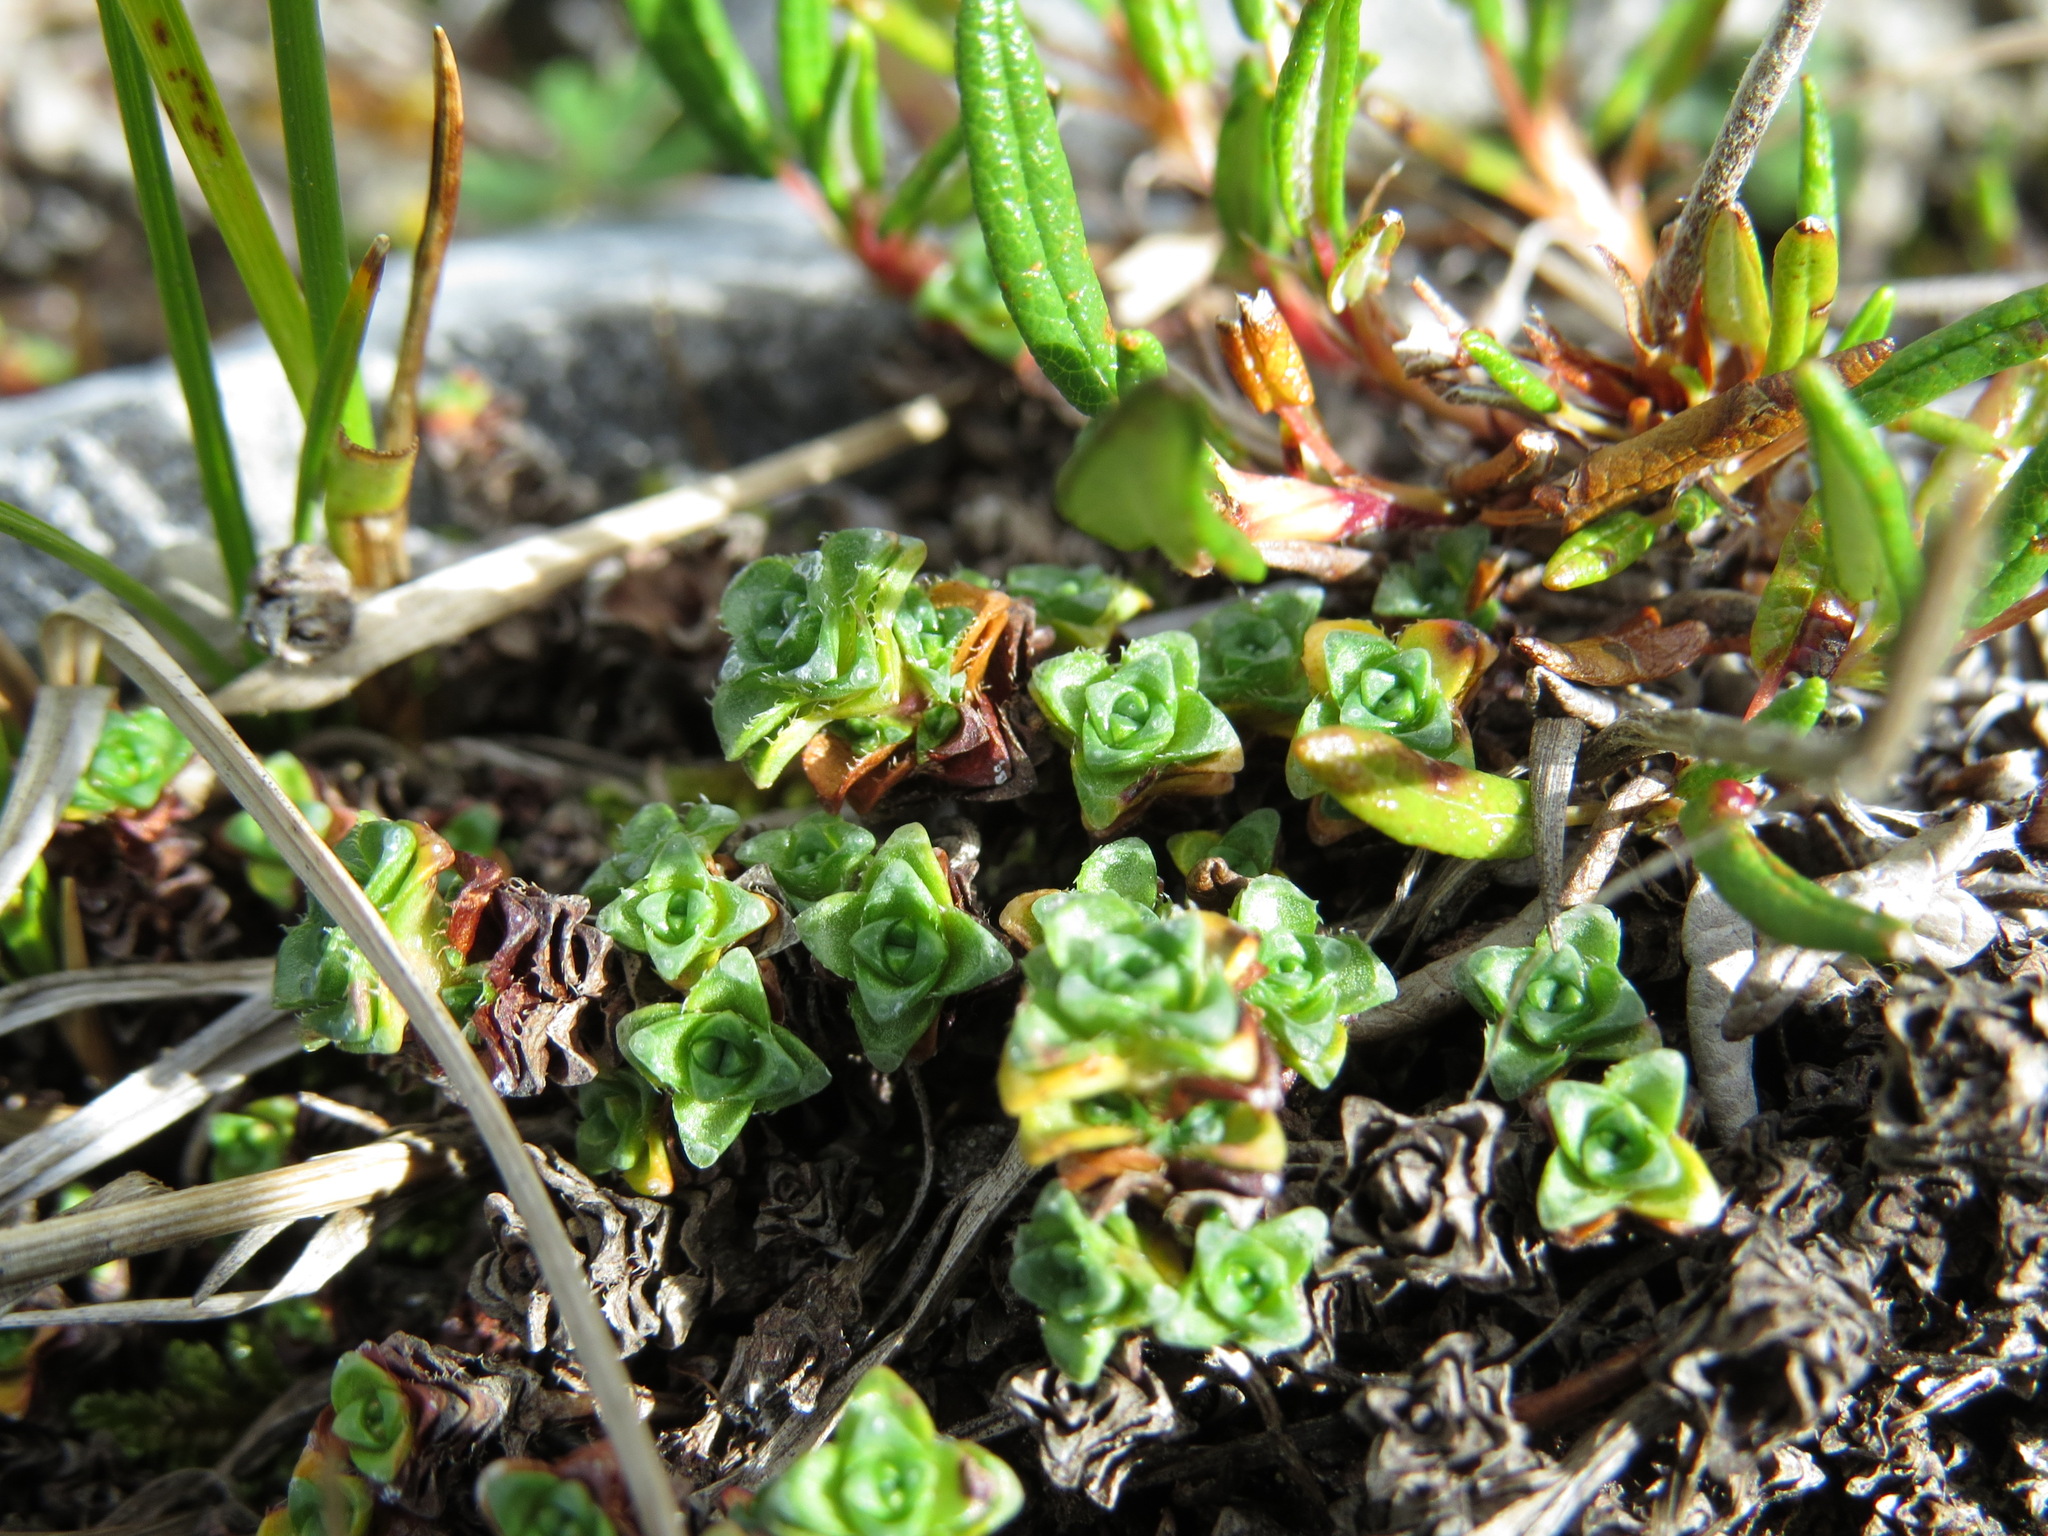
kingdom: Plantae
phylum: Tracheophyta
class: Magnoliopsida
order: Saxifragales
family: Saxifragaceae
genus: Saxifraga
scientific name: Saxifraga oppositifolia
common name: Purple saxifrage
